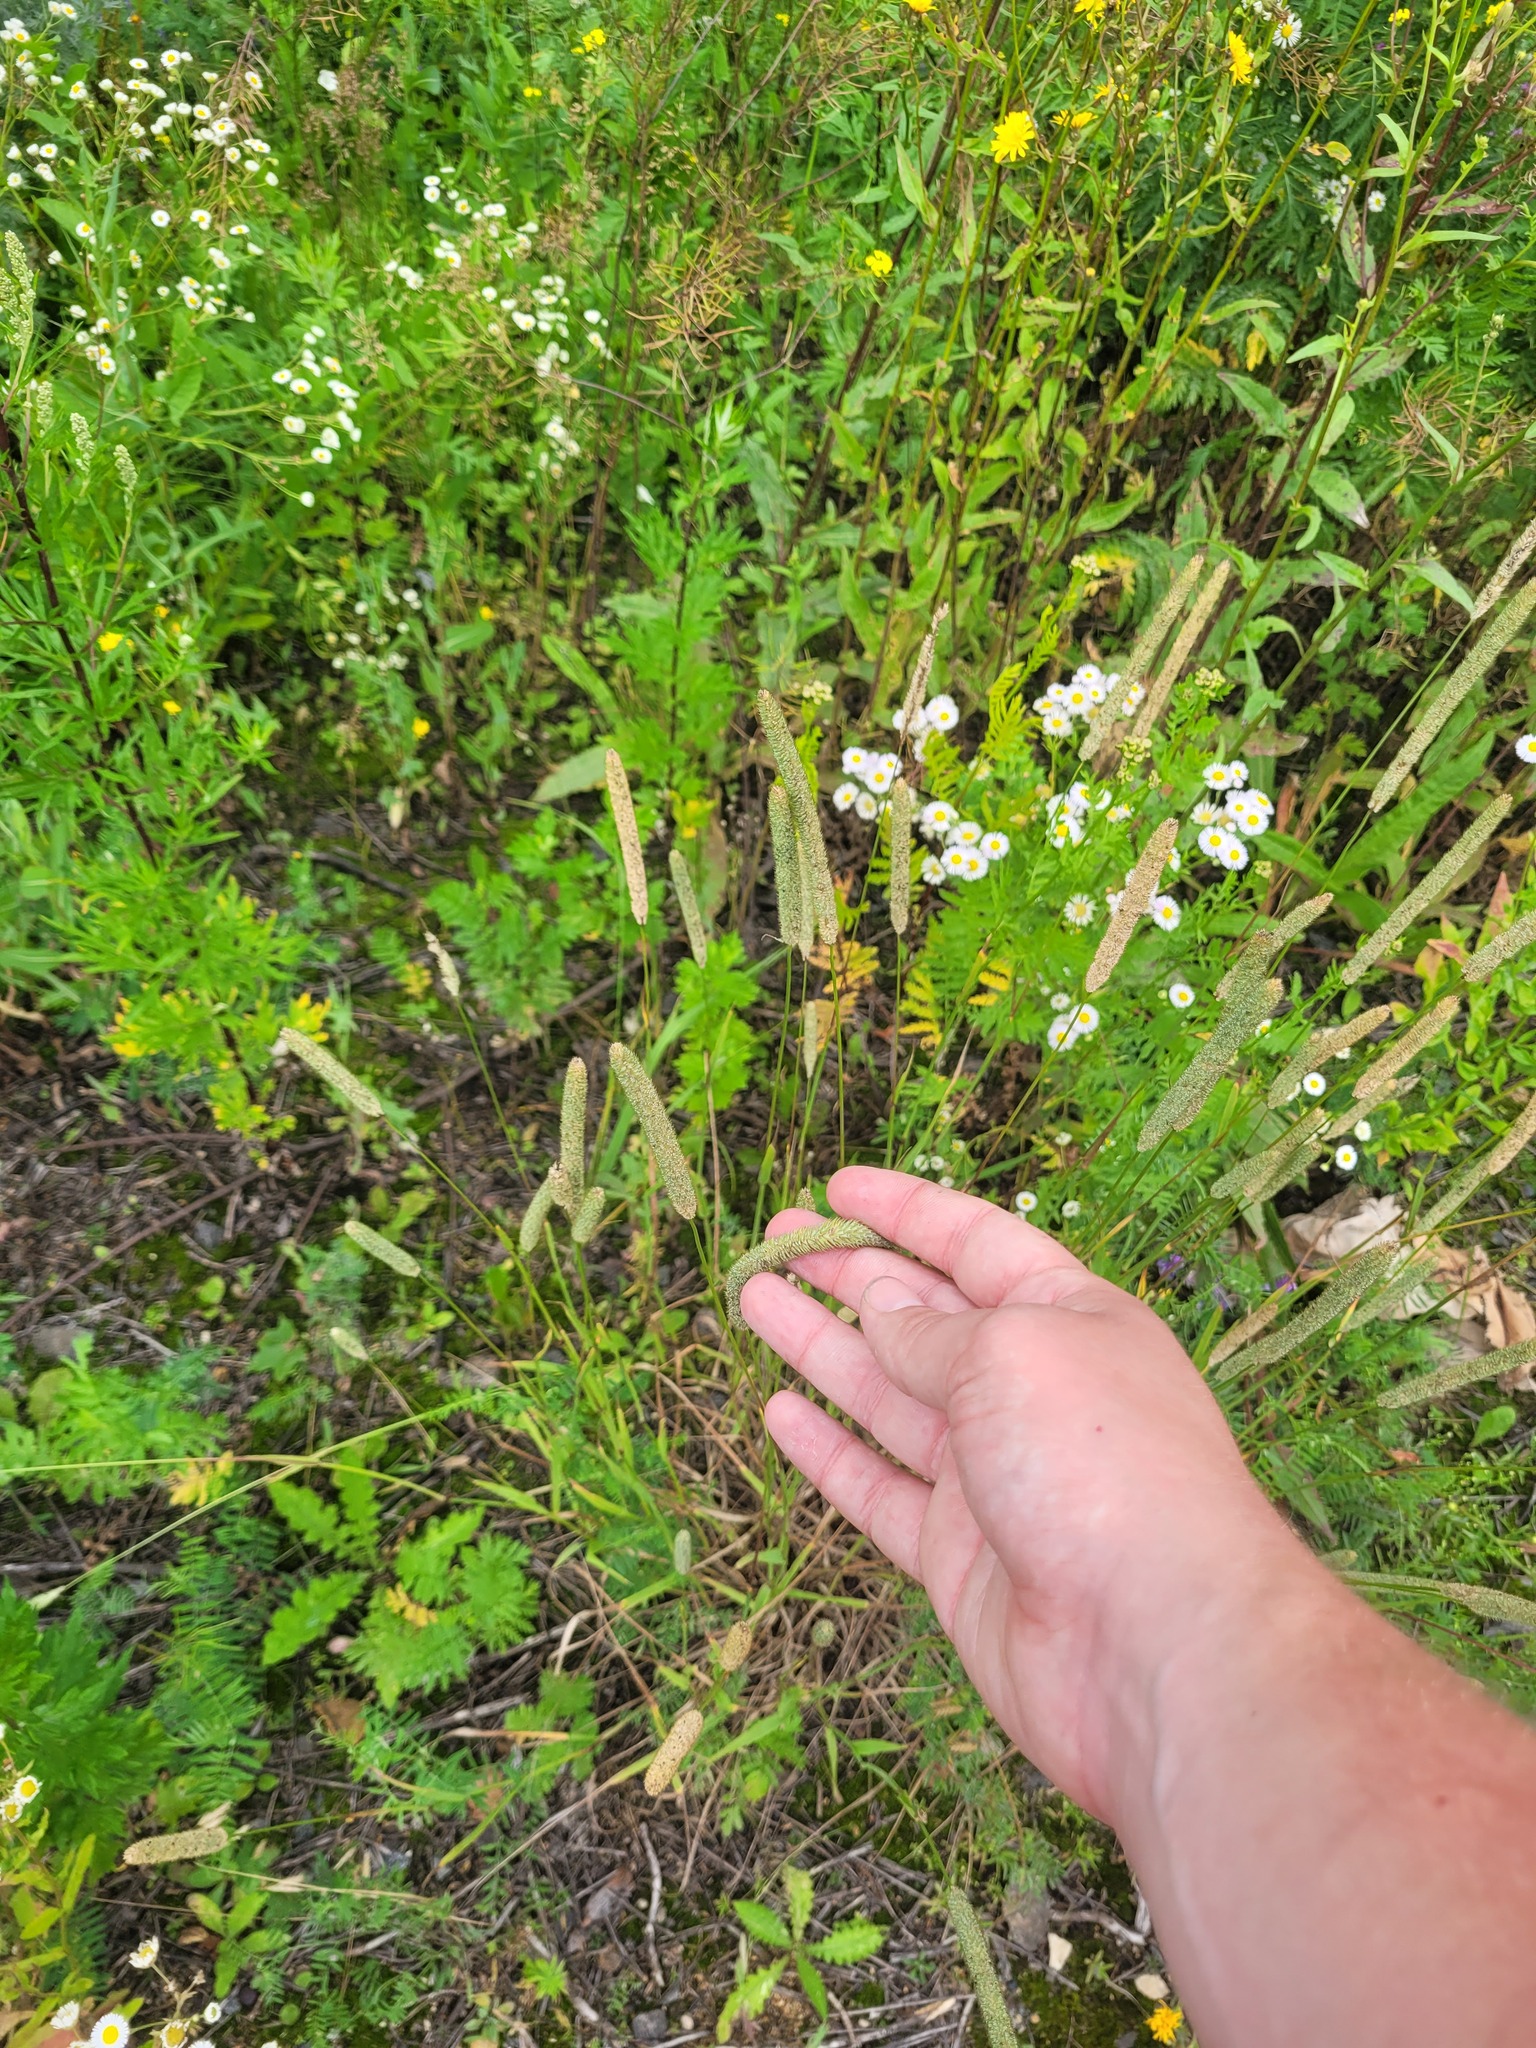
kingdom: Plantae
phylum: Tracheophyta
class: Liliopsida
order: Poales
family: Poaceae
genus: Phleum
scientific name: Phleum pratense
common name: Timothy grass
